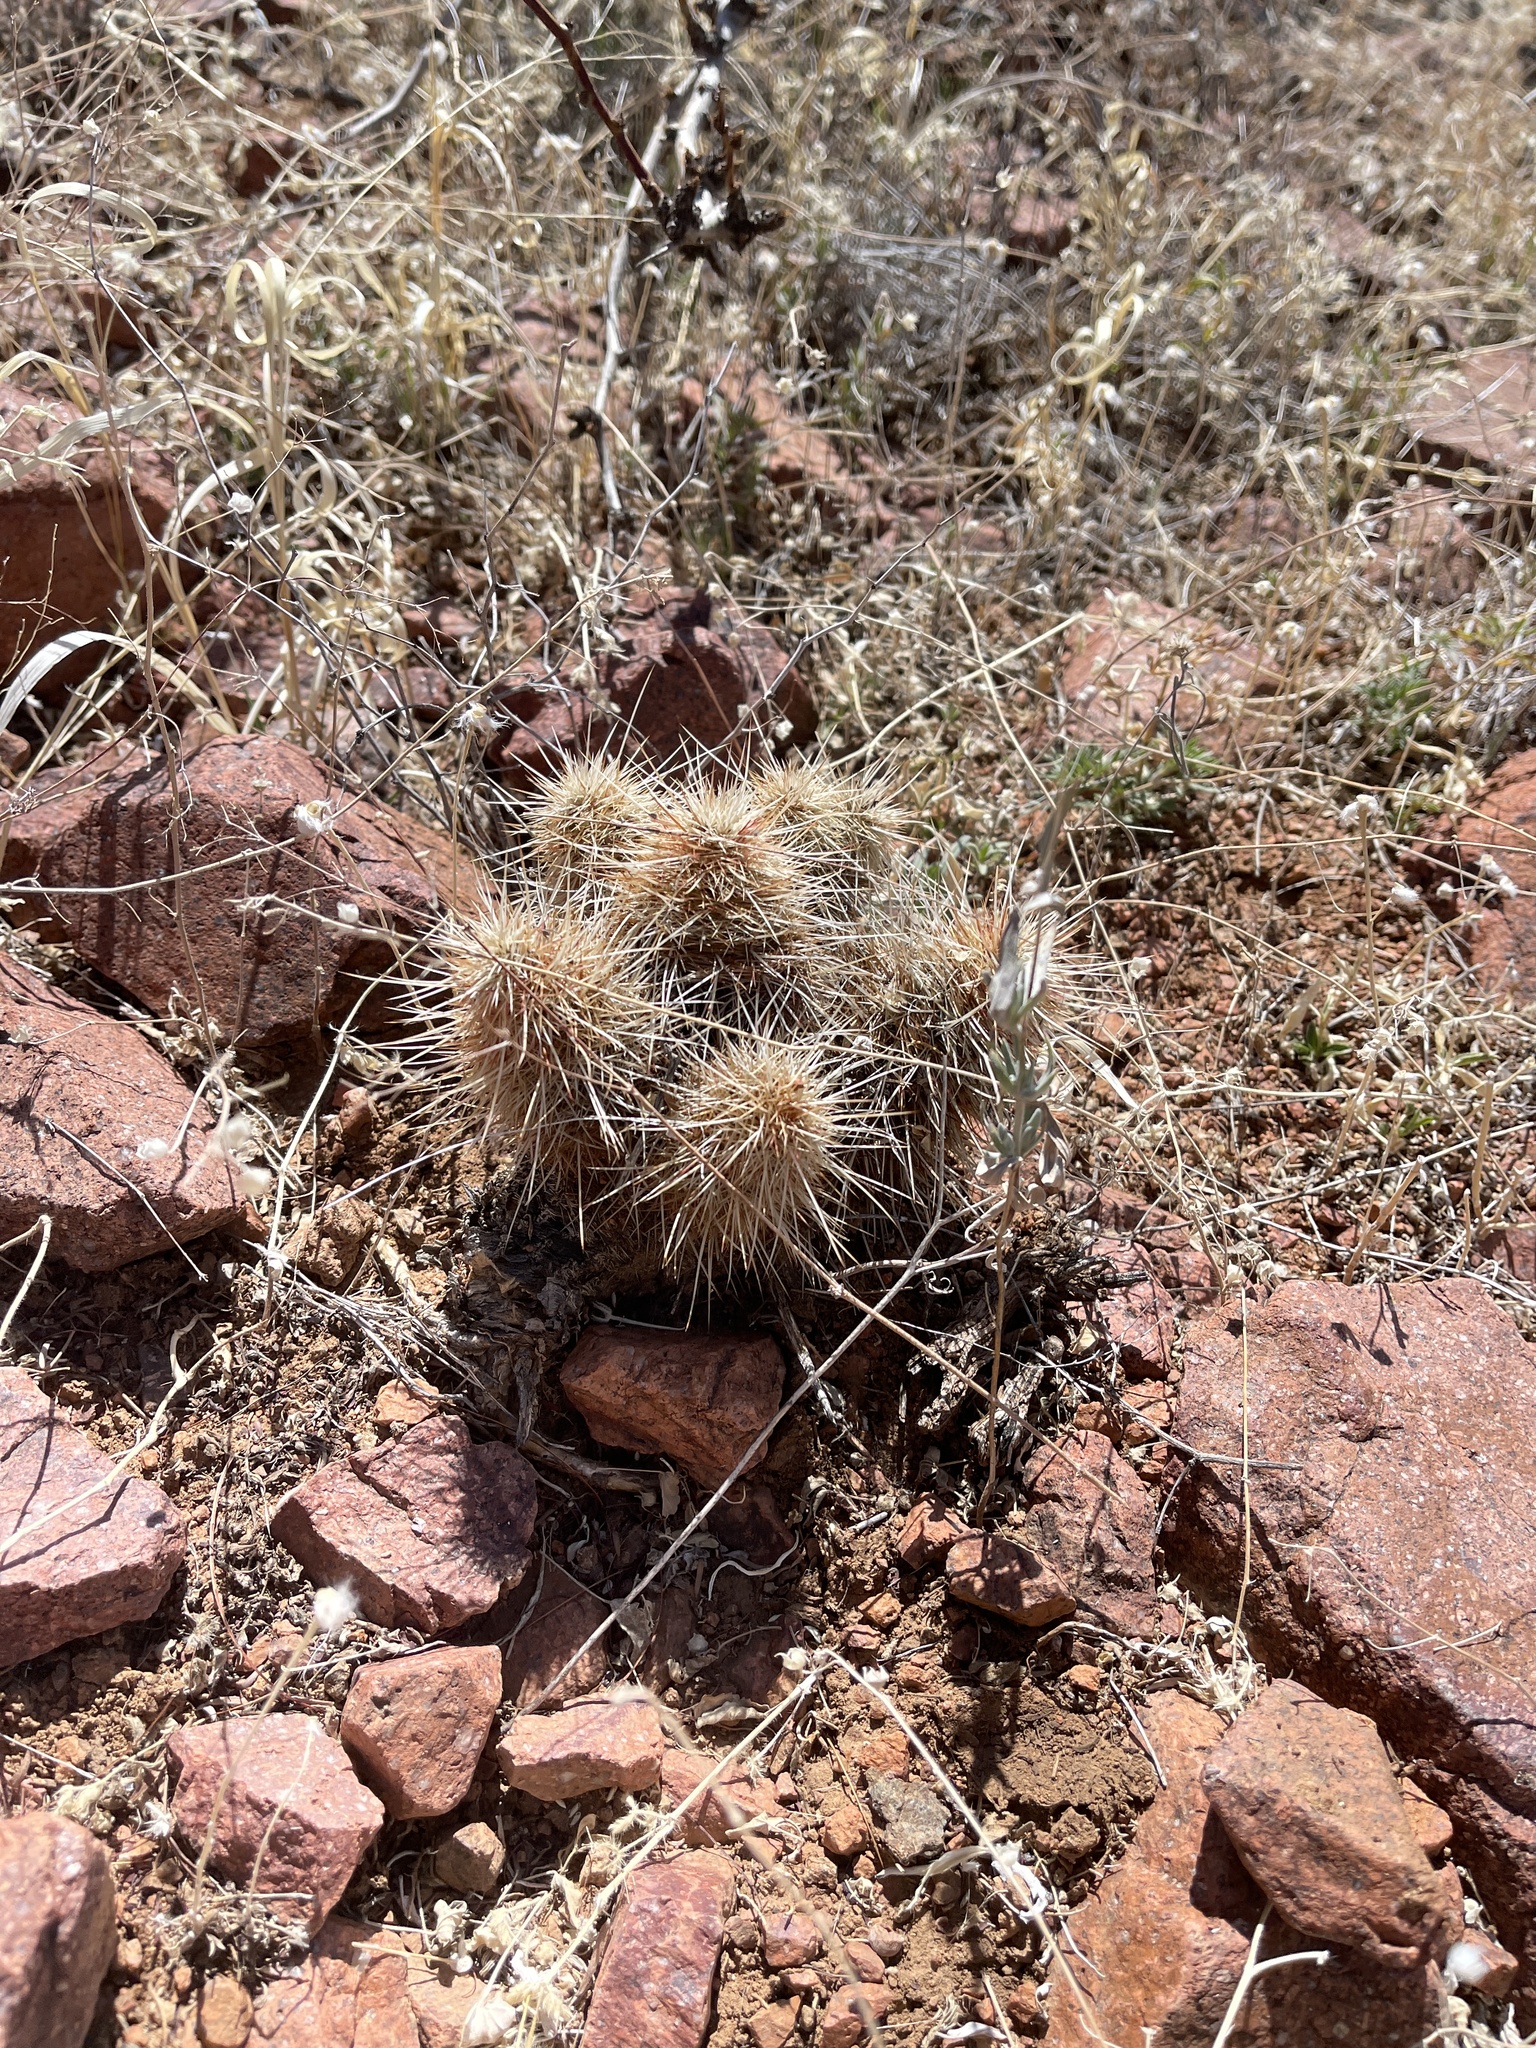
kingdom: Plantae
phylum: Tracheophyta
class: Magnoliopsida
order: Caryophyllales
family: Cactaceae
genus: Echinocereus
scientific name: Echinocereus viridiflorus
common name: Nylon hedgehog cactus
